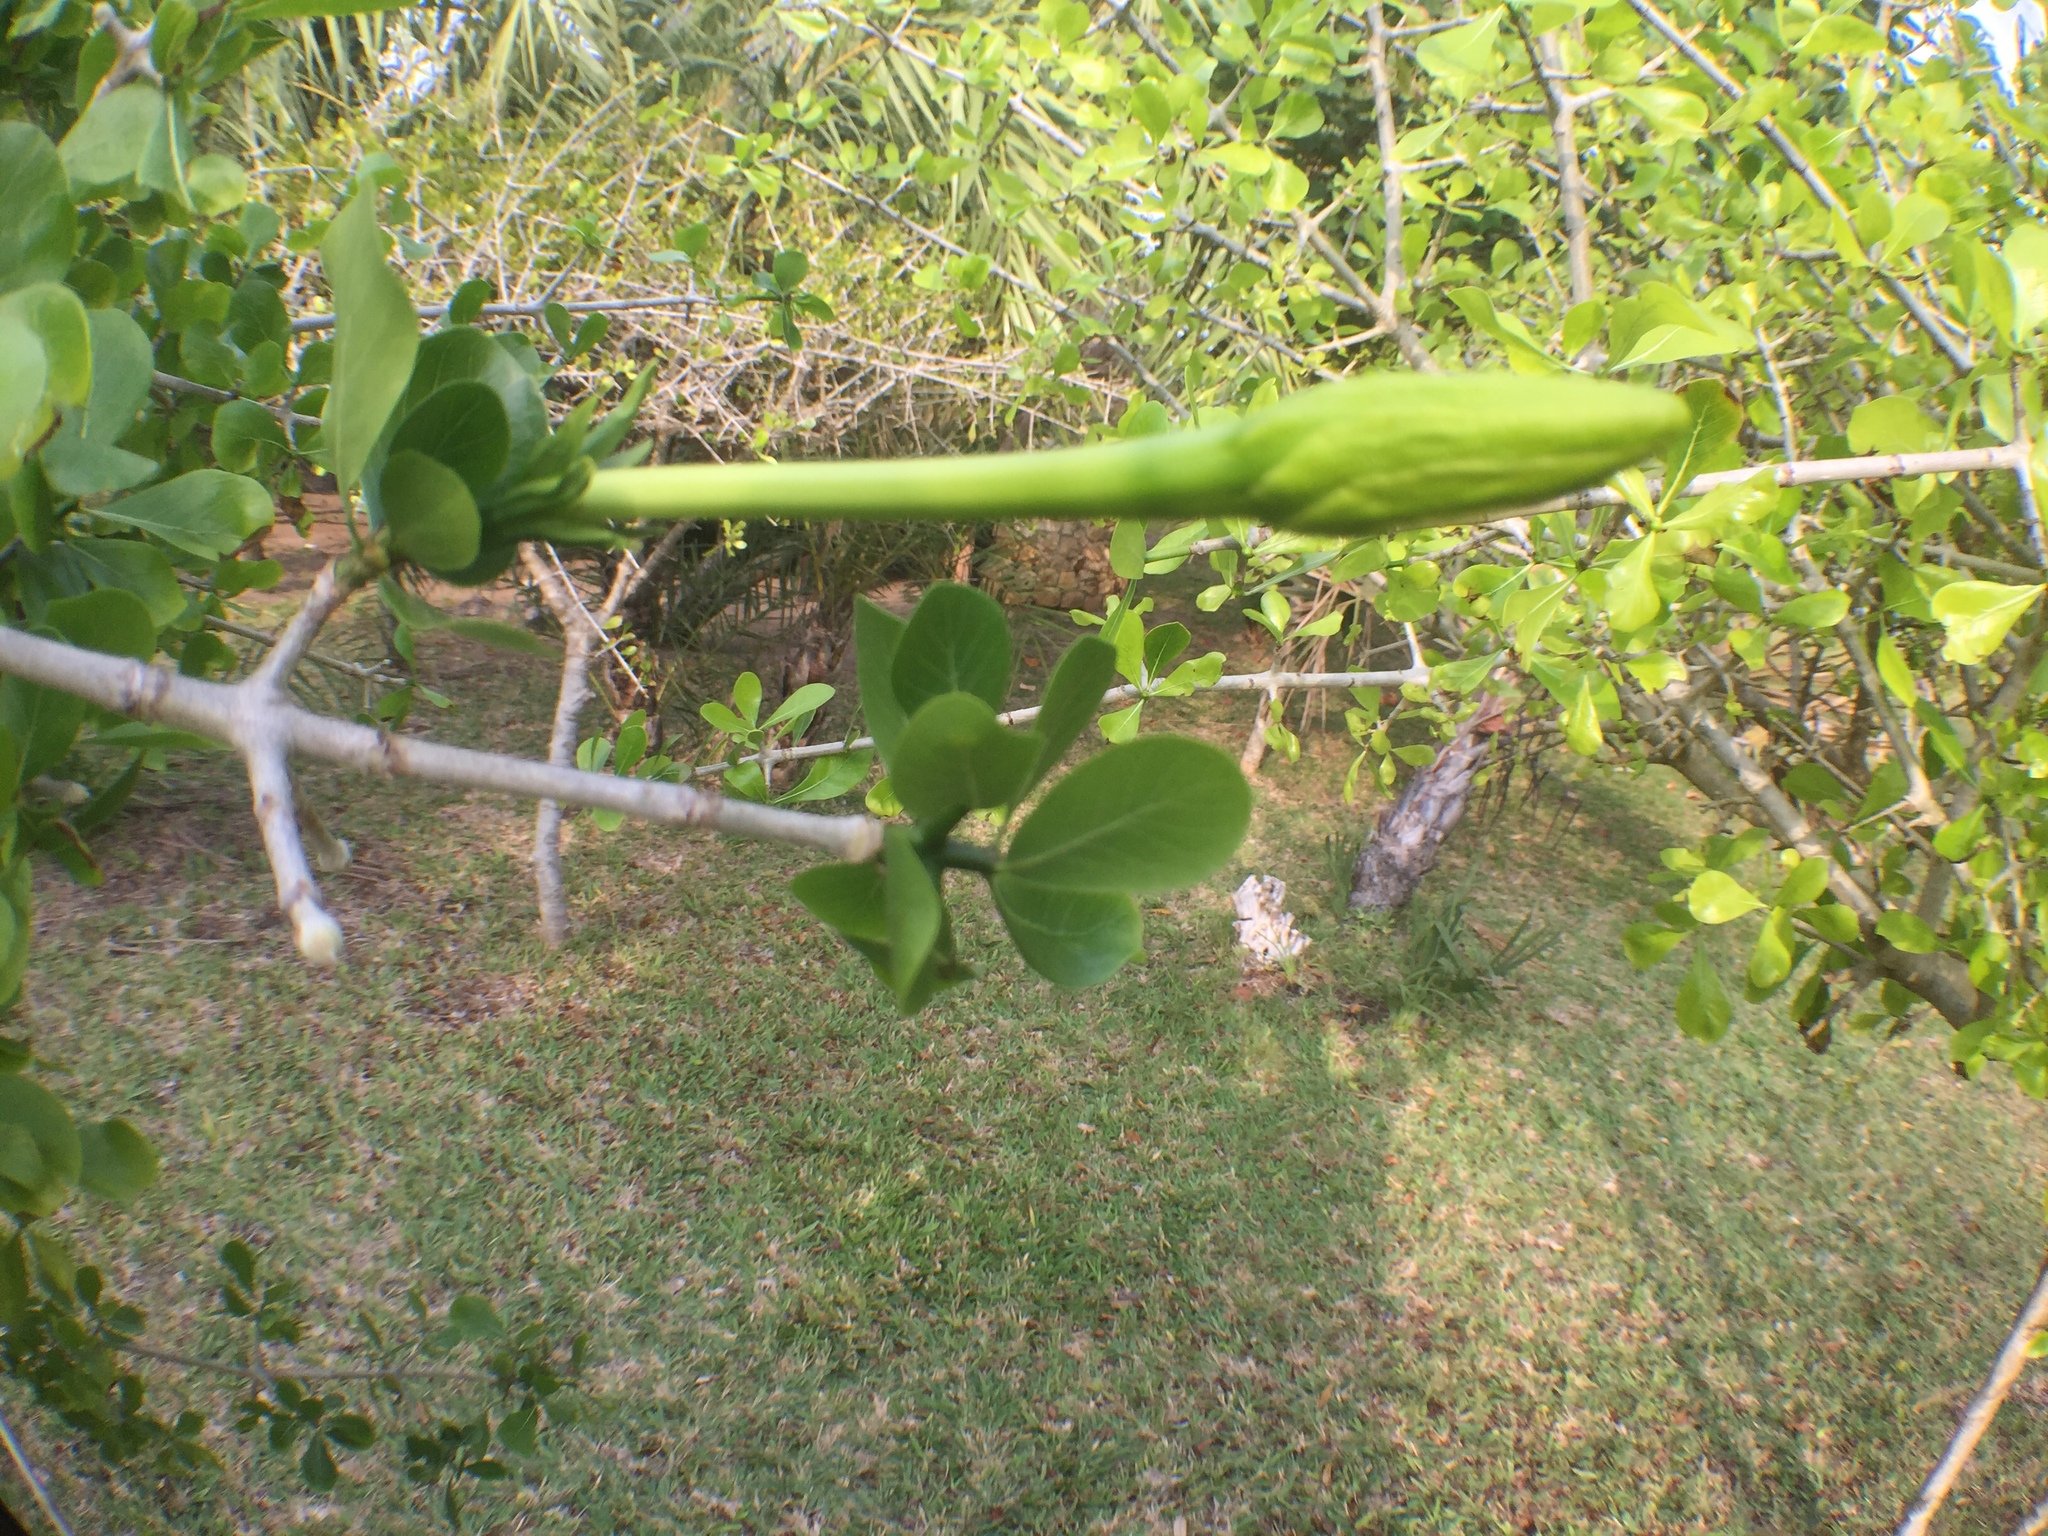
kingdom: Plantae
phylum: Tracheophyta
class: Magnoliopsida
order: Gentianales
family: Rubiaceae
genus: Gardenia
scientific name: Gardenia volkensii
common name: Common gardenia
